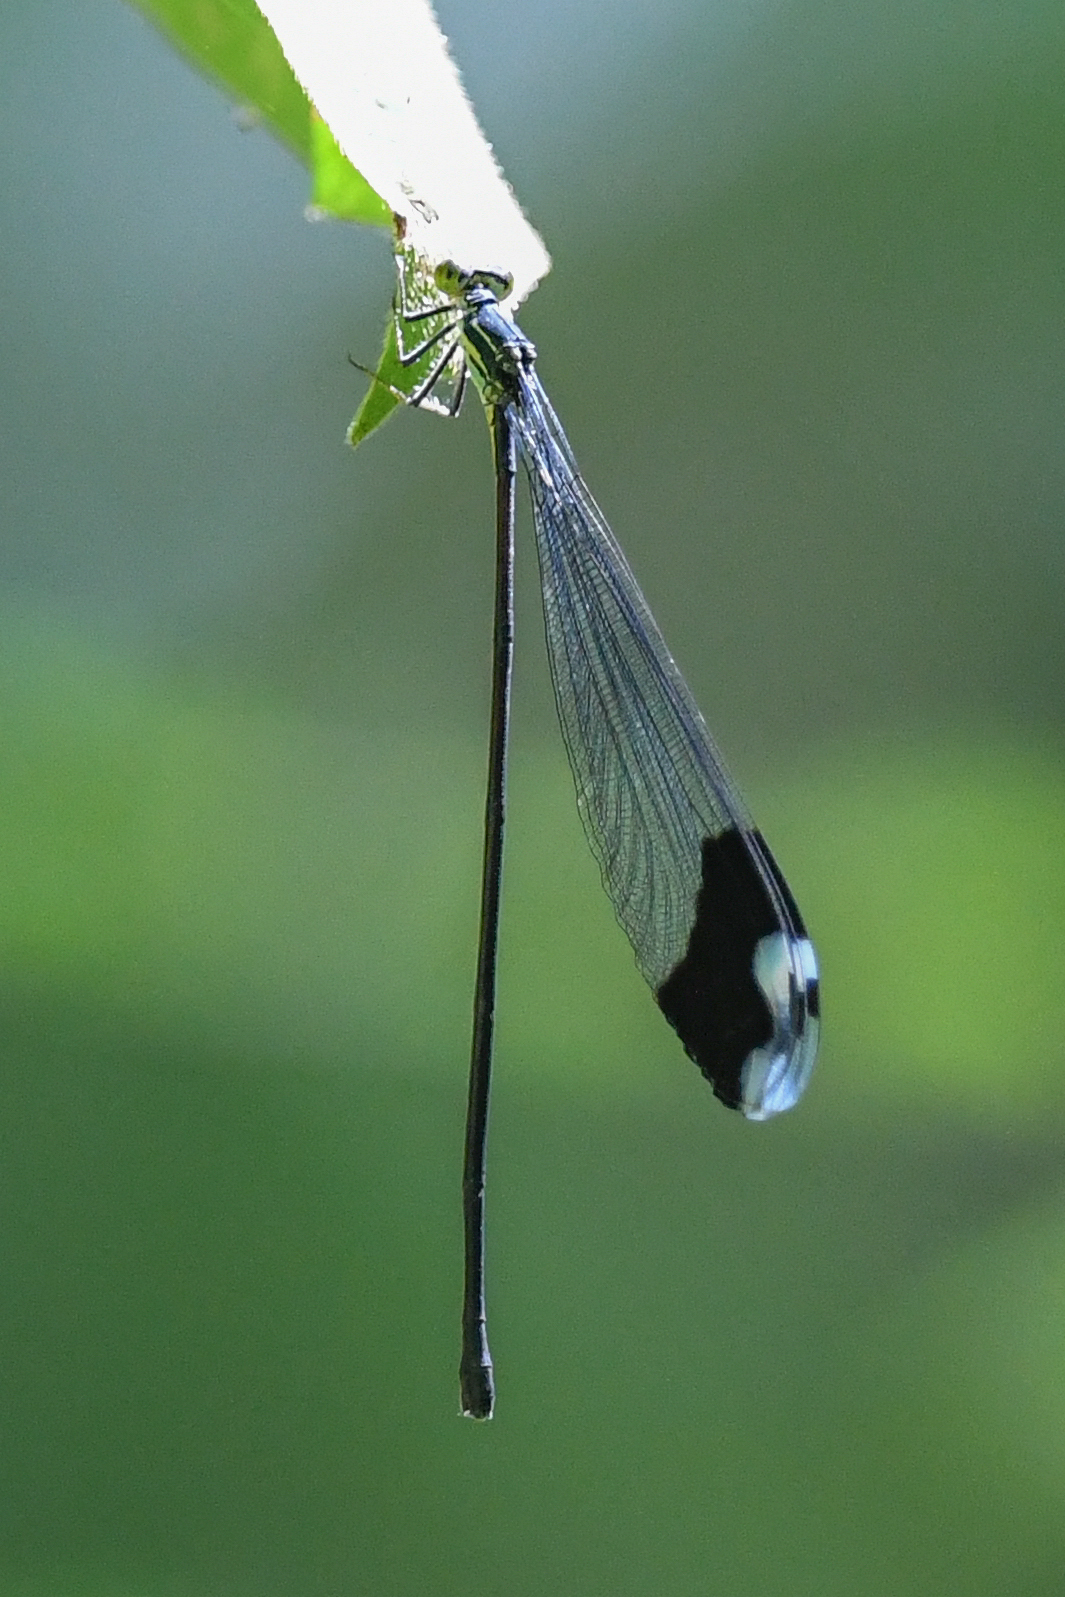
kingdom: Animalia
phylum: Arthropoda
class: Insecta
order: Odonata
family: Coenagrionidae
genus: Megaloprepus
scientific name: Megaloprepus diaboli
